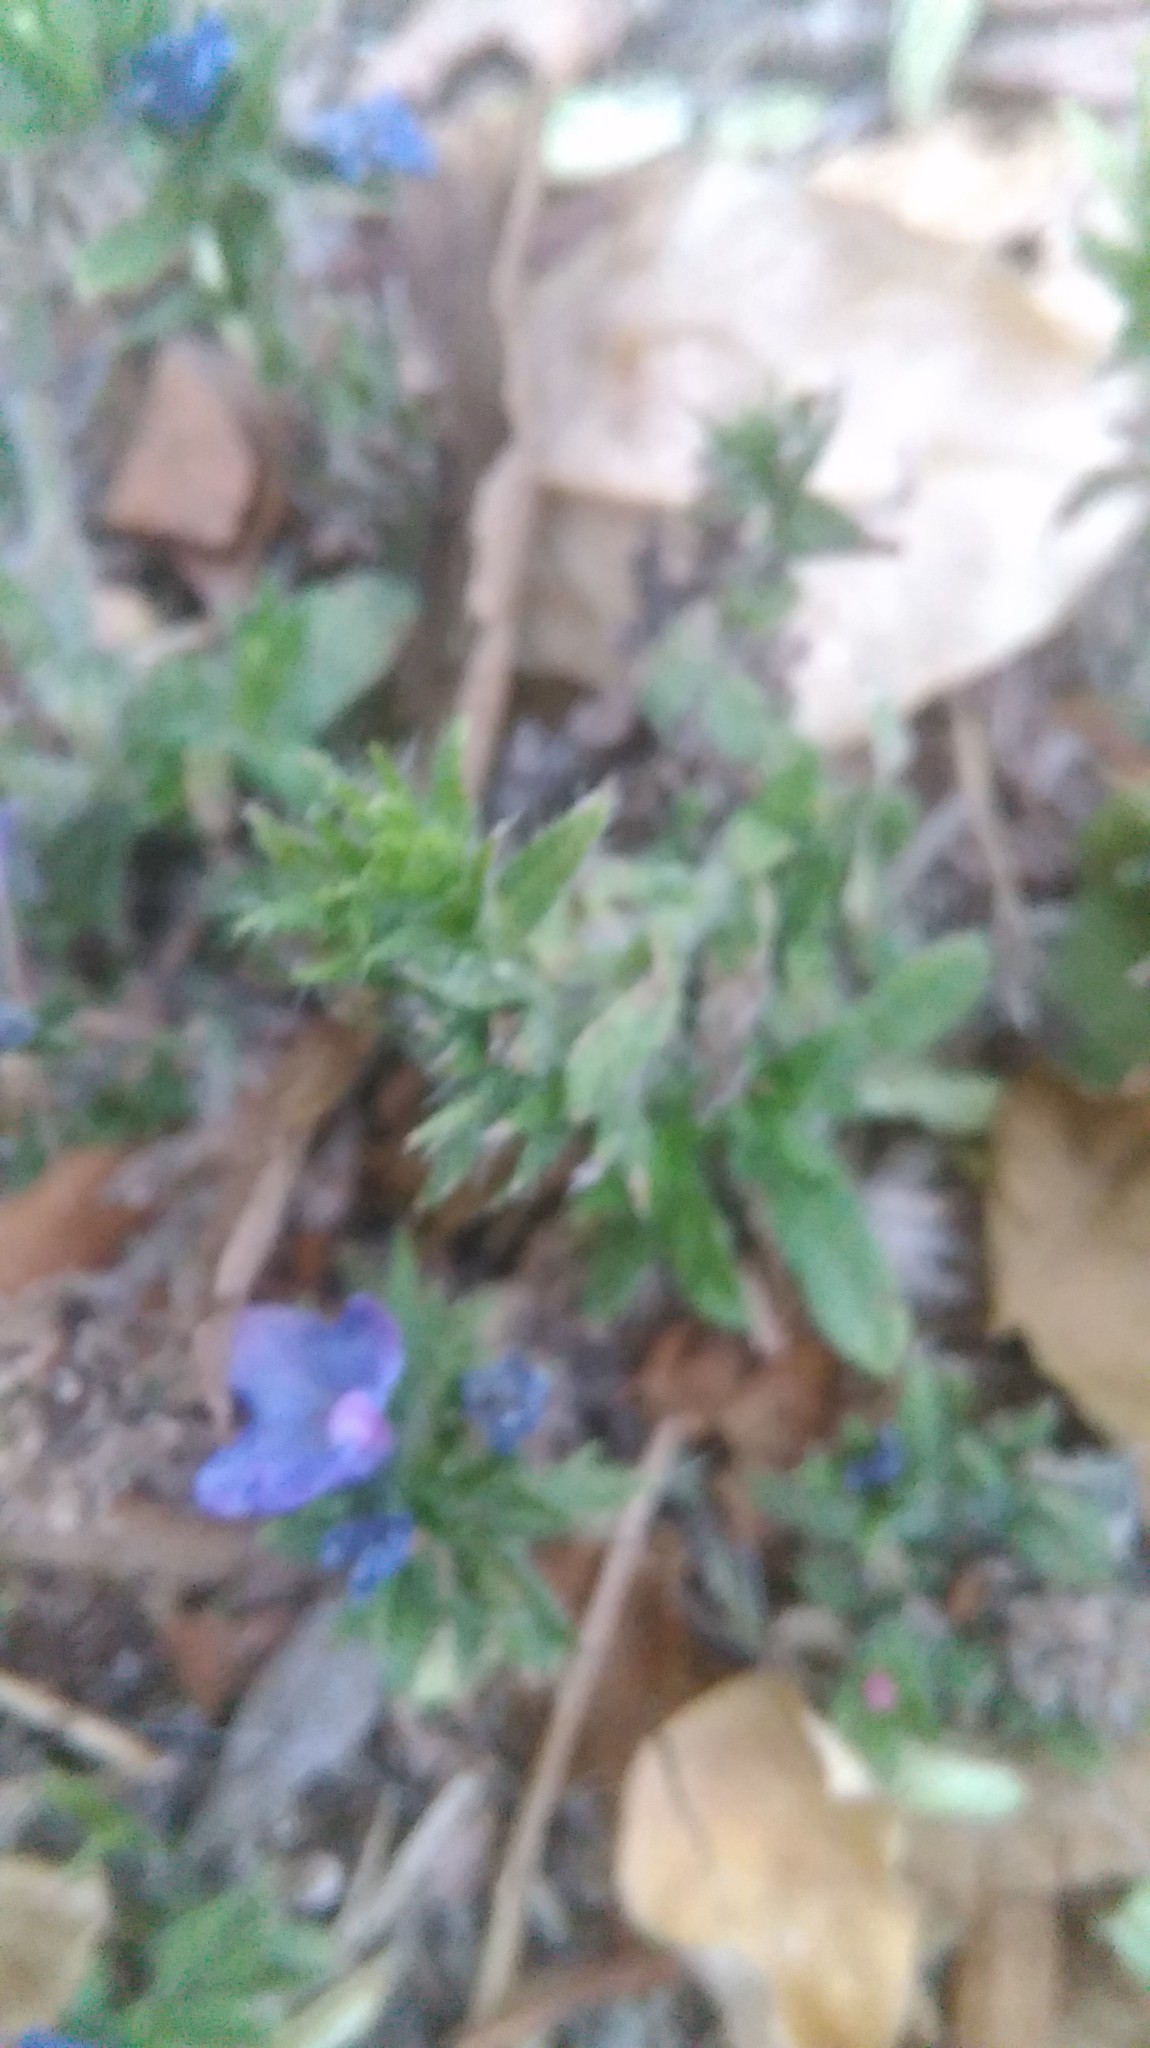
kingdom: Plantae
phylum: Tracheophyta
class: Magnoliopsida
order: Boraginales
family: Boraginaceae
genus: Echium
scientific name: Echium plantagineum
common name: Purple viper's-bugloss
